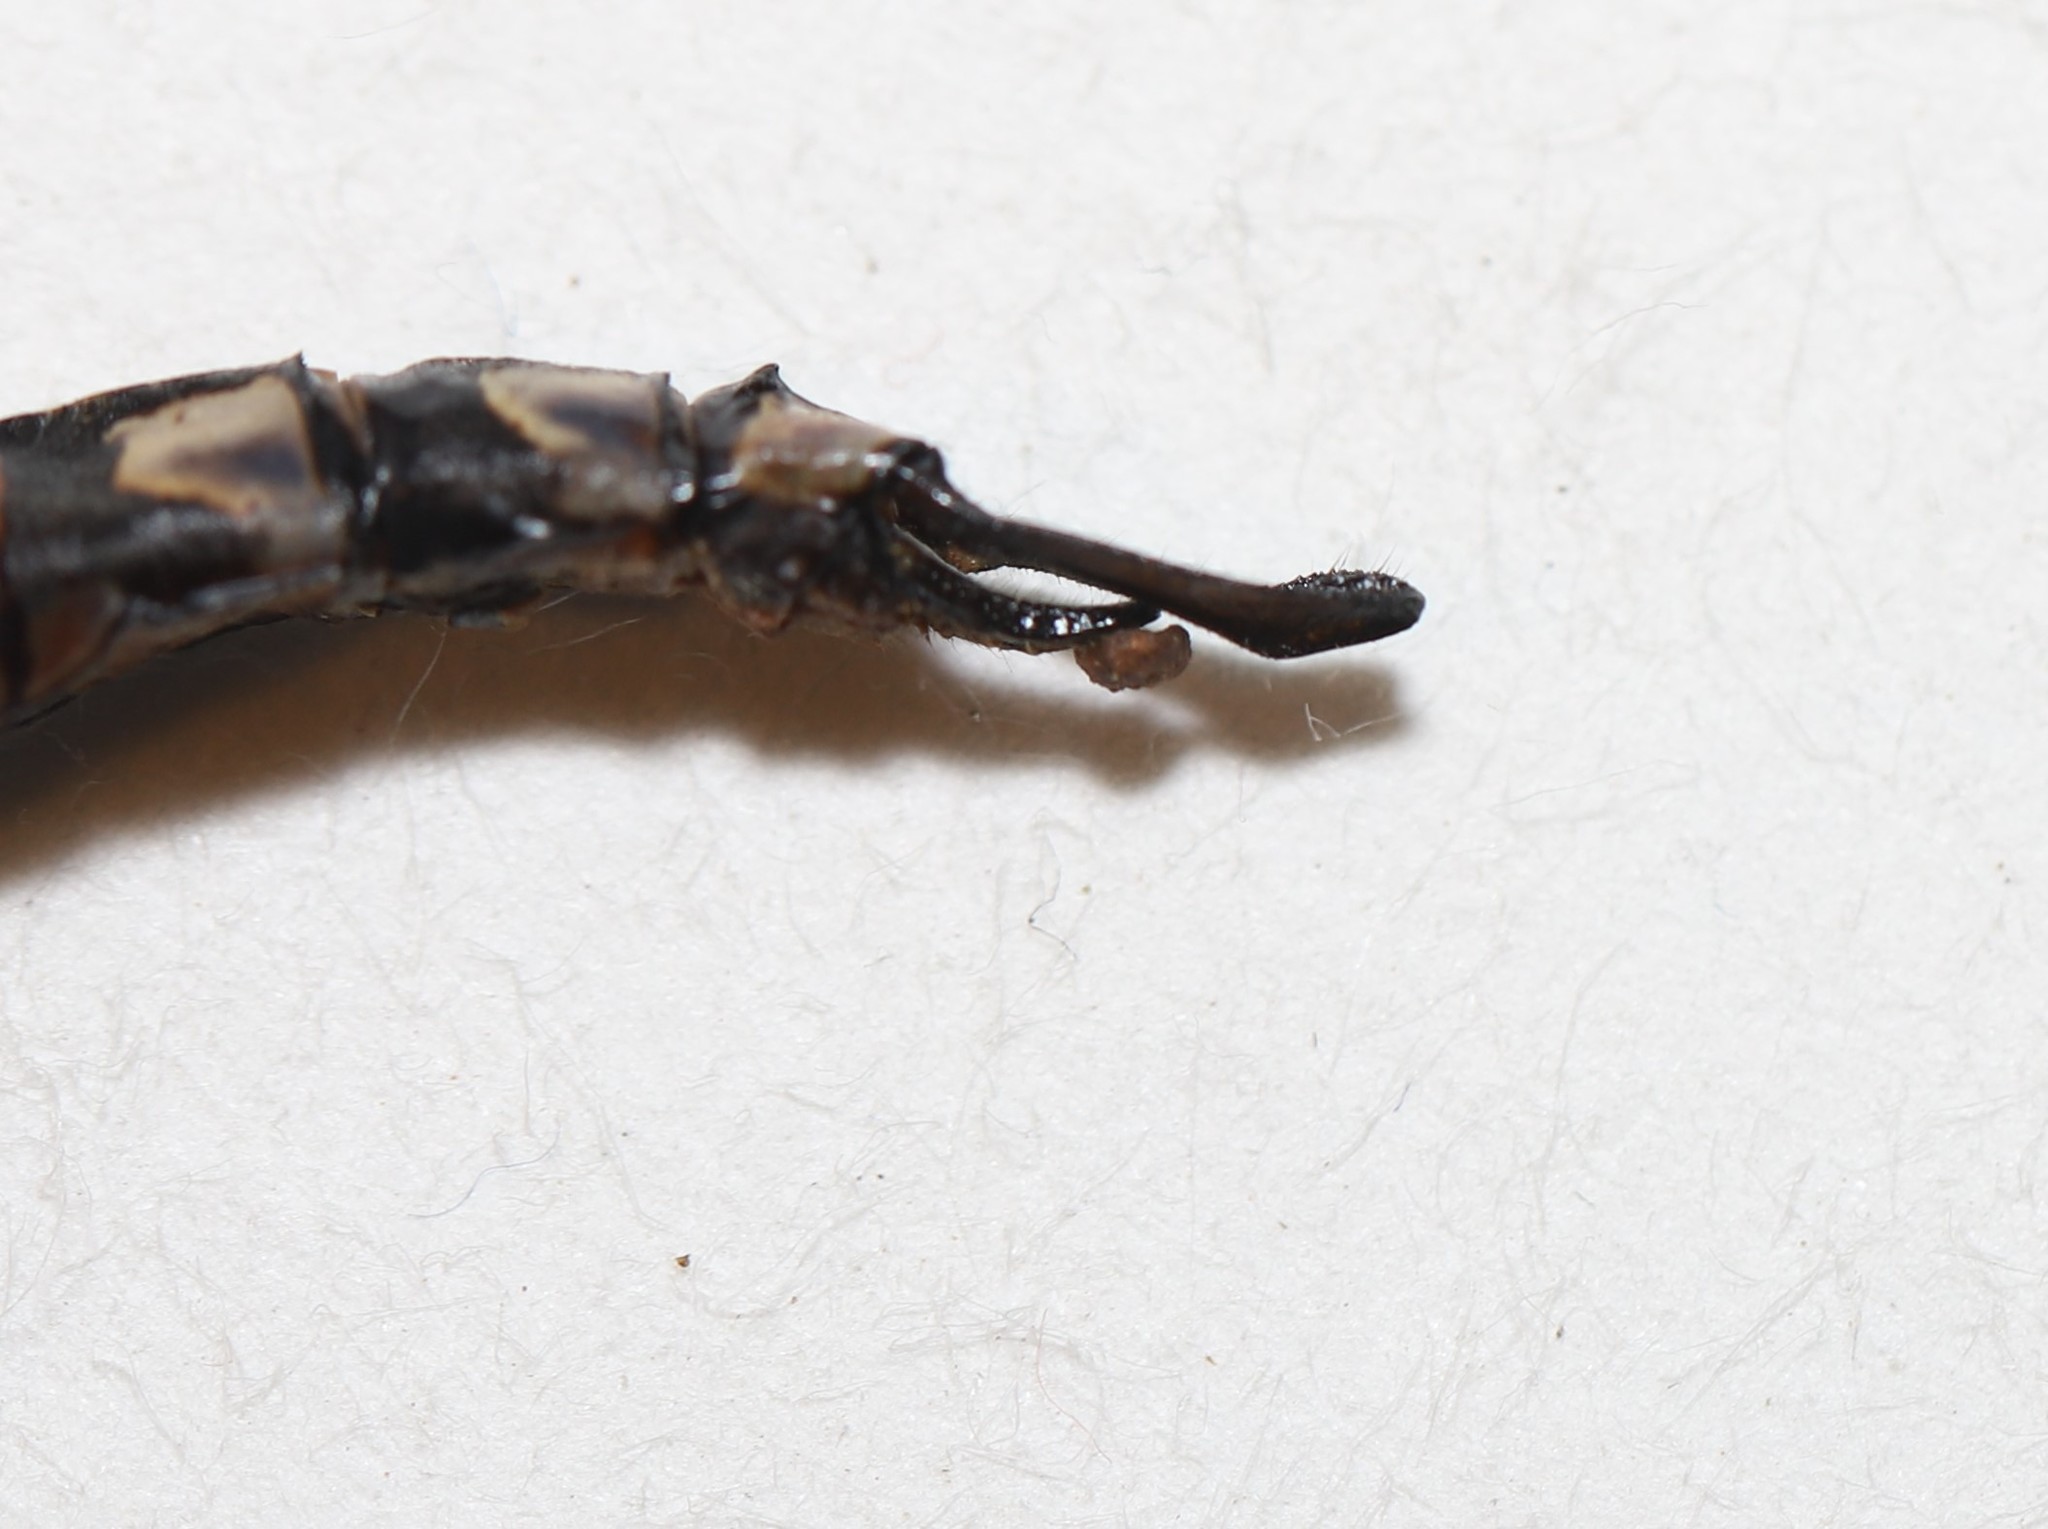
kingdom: Animalia
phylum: Arthropoda
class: Insecta
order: Odonata
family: Aeshnidae
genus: Aeshna
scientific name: Aeshna eremita
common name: Lake darner
